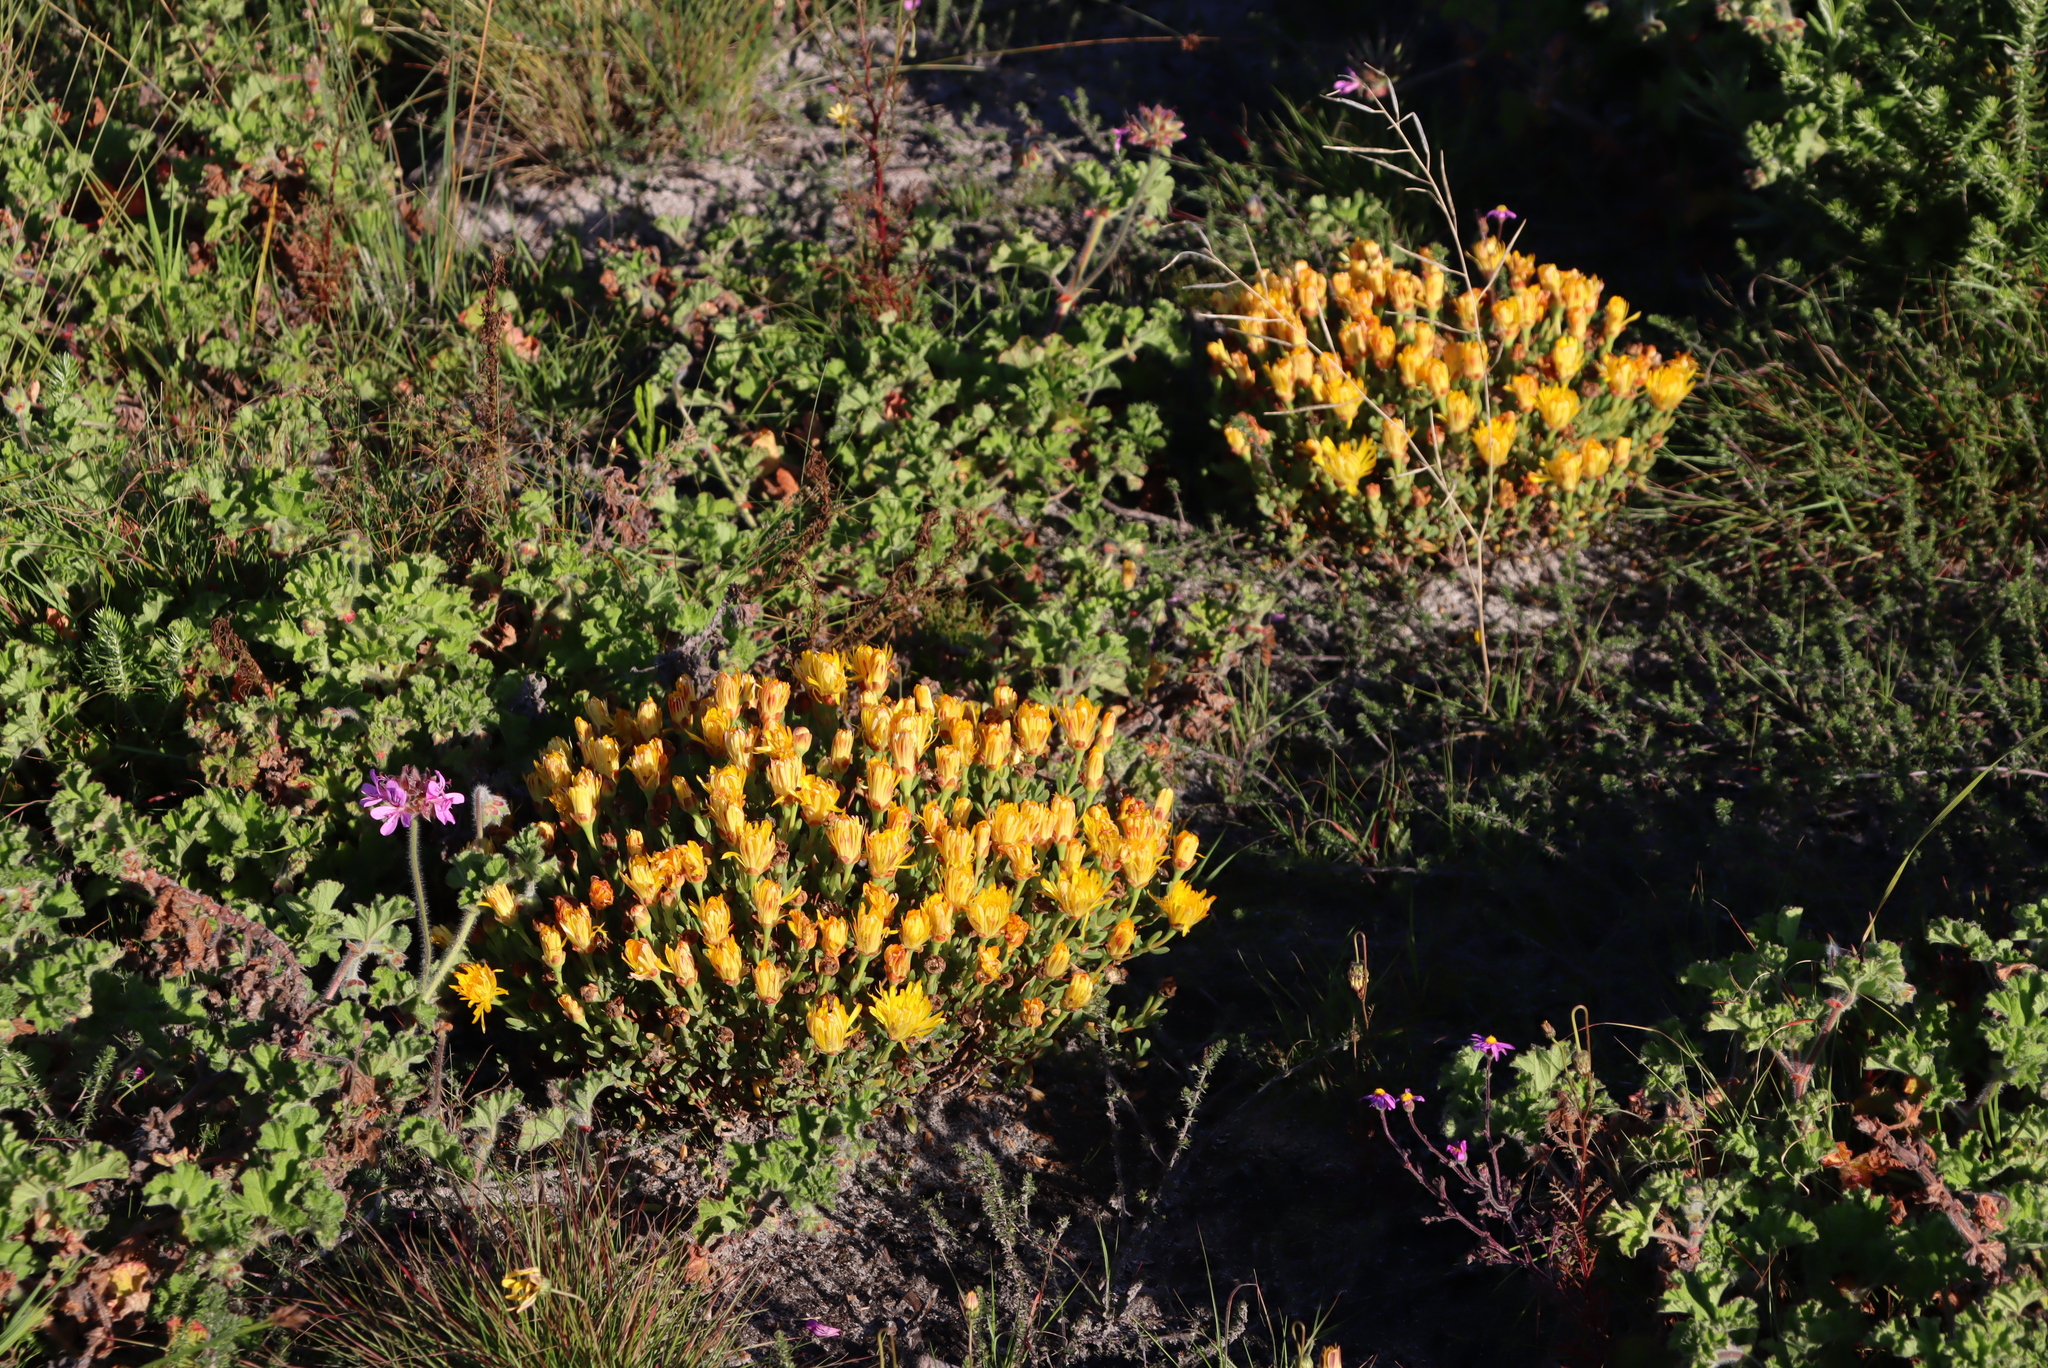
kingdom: Plantae
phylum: Tracheophyta
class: Magnoliopsida
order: Caryophyllales
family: Aizoaceae
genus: Lampranthus
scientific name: Lampranthus glaucus
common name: Noonflower
